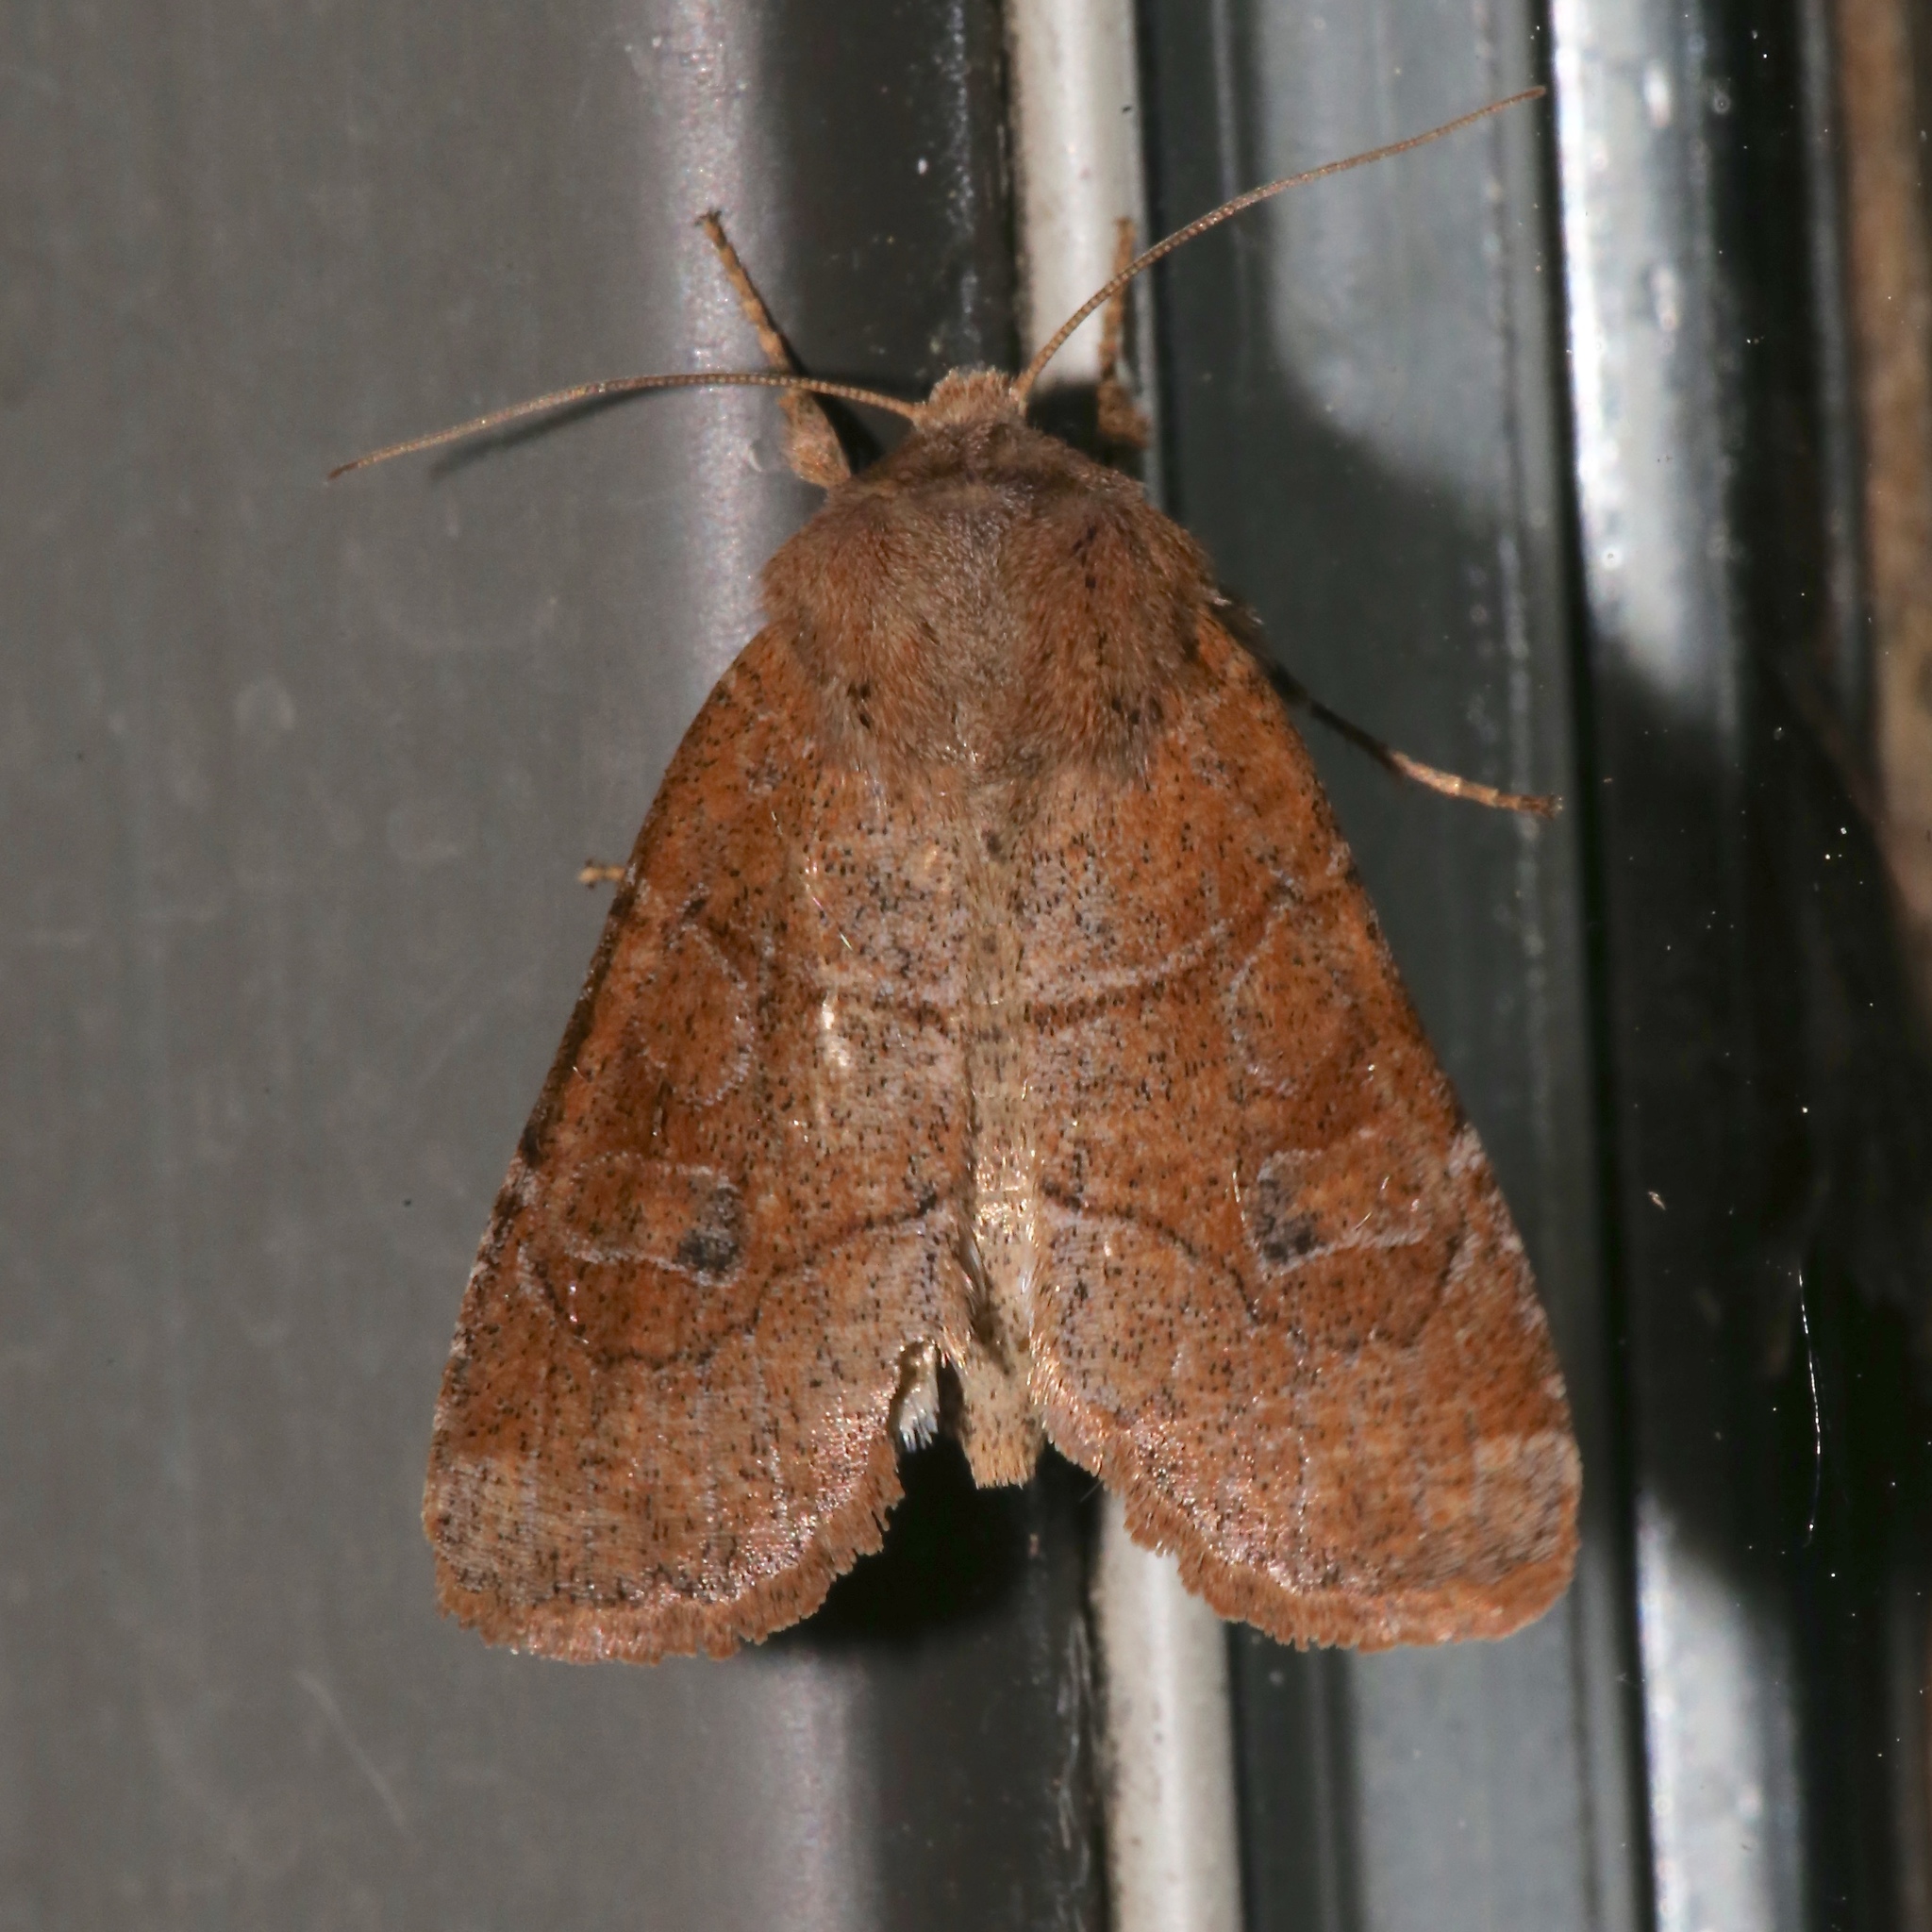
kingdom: Animalia
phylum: Arthropoda
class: Insecta
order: Lepidoptera
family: Noctuidae
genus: Crocigrapha
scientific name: Crocigrapha normani
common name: Norman's quaker
